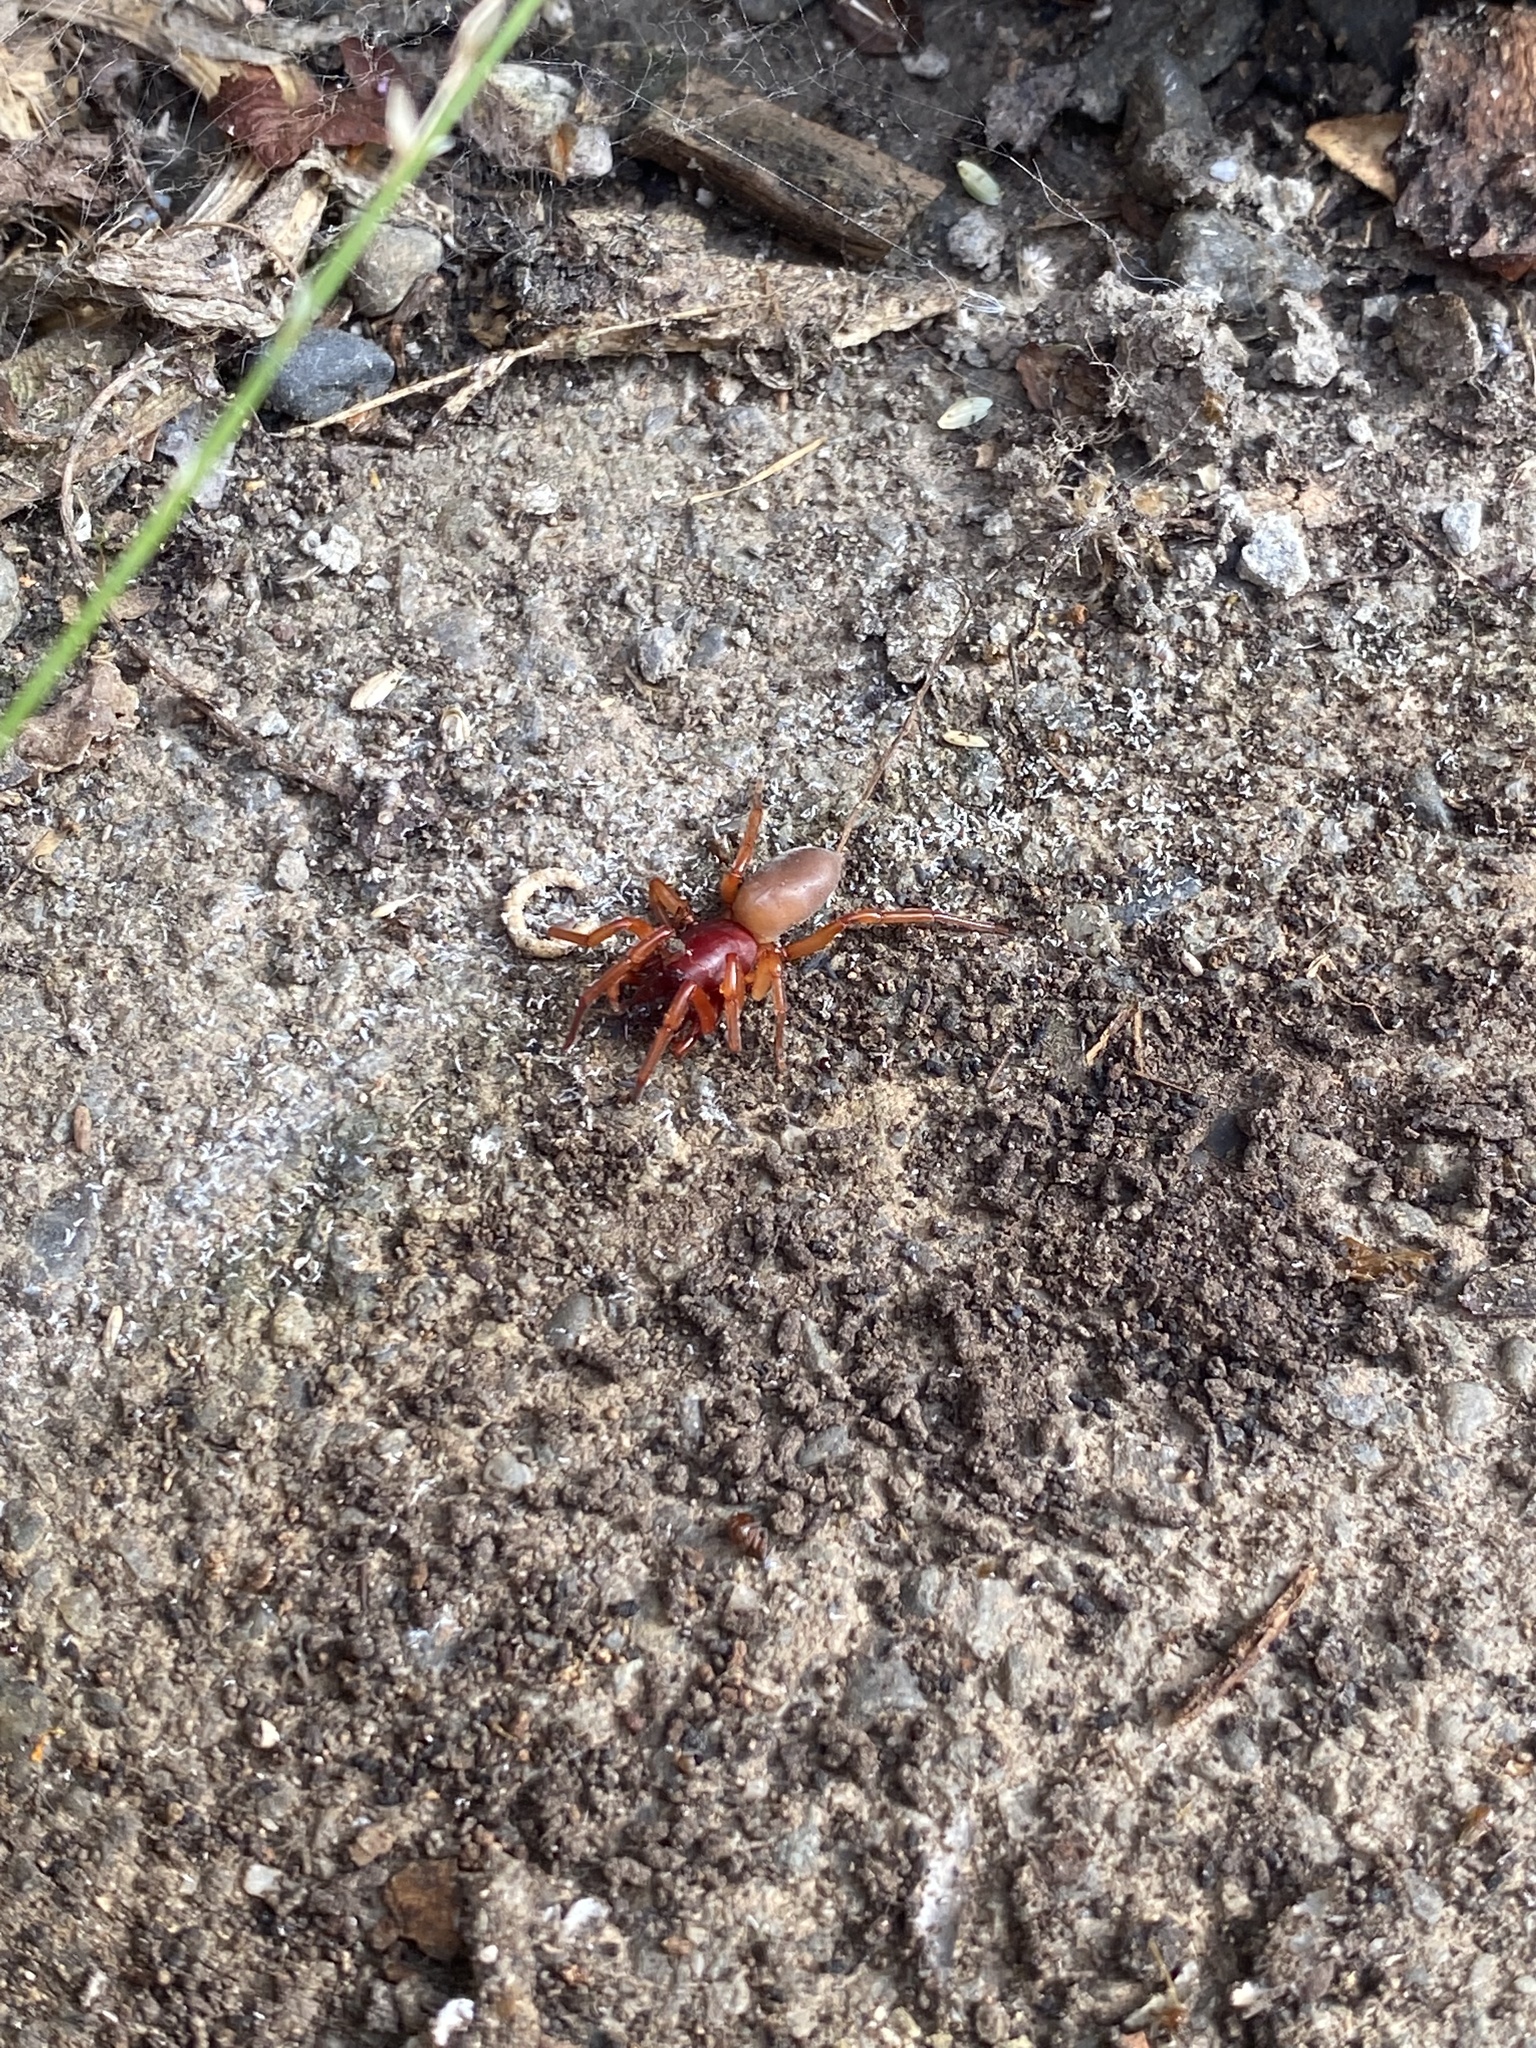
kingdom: Animalia
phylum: Arthropoda
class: Arachnida
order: Araneae
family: Dysderidae
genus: Dysdera
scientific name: Dysdera crocata
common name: Woodlouse spider
